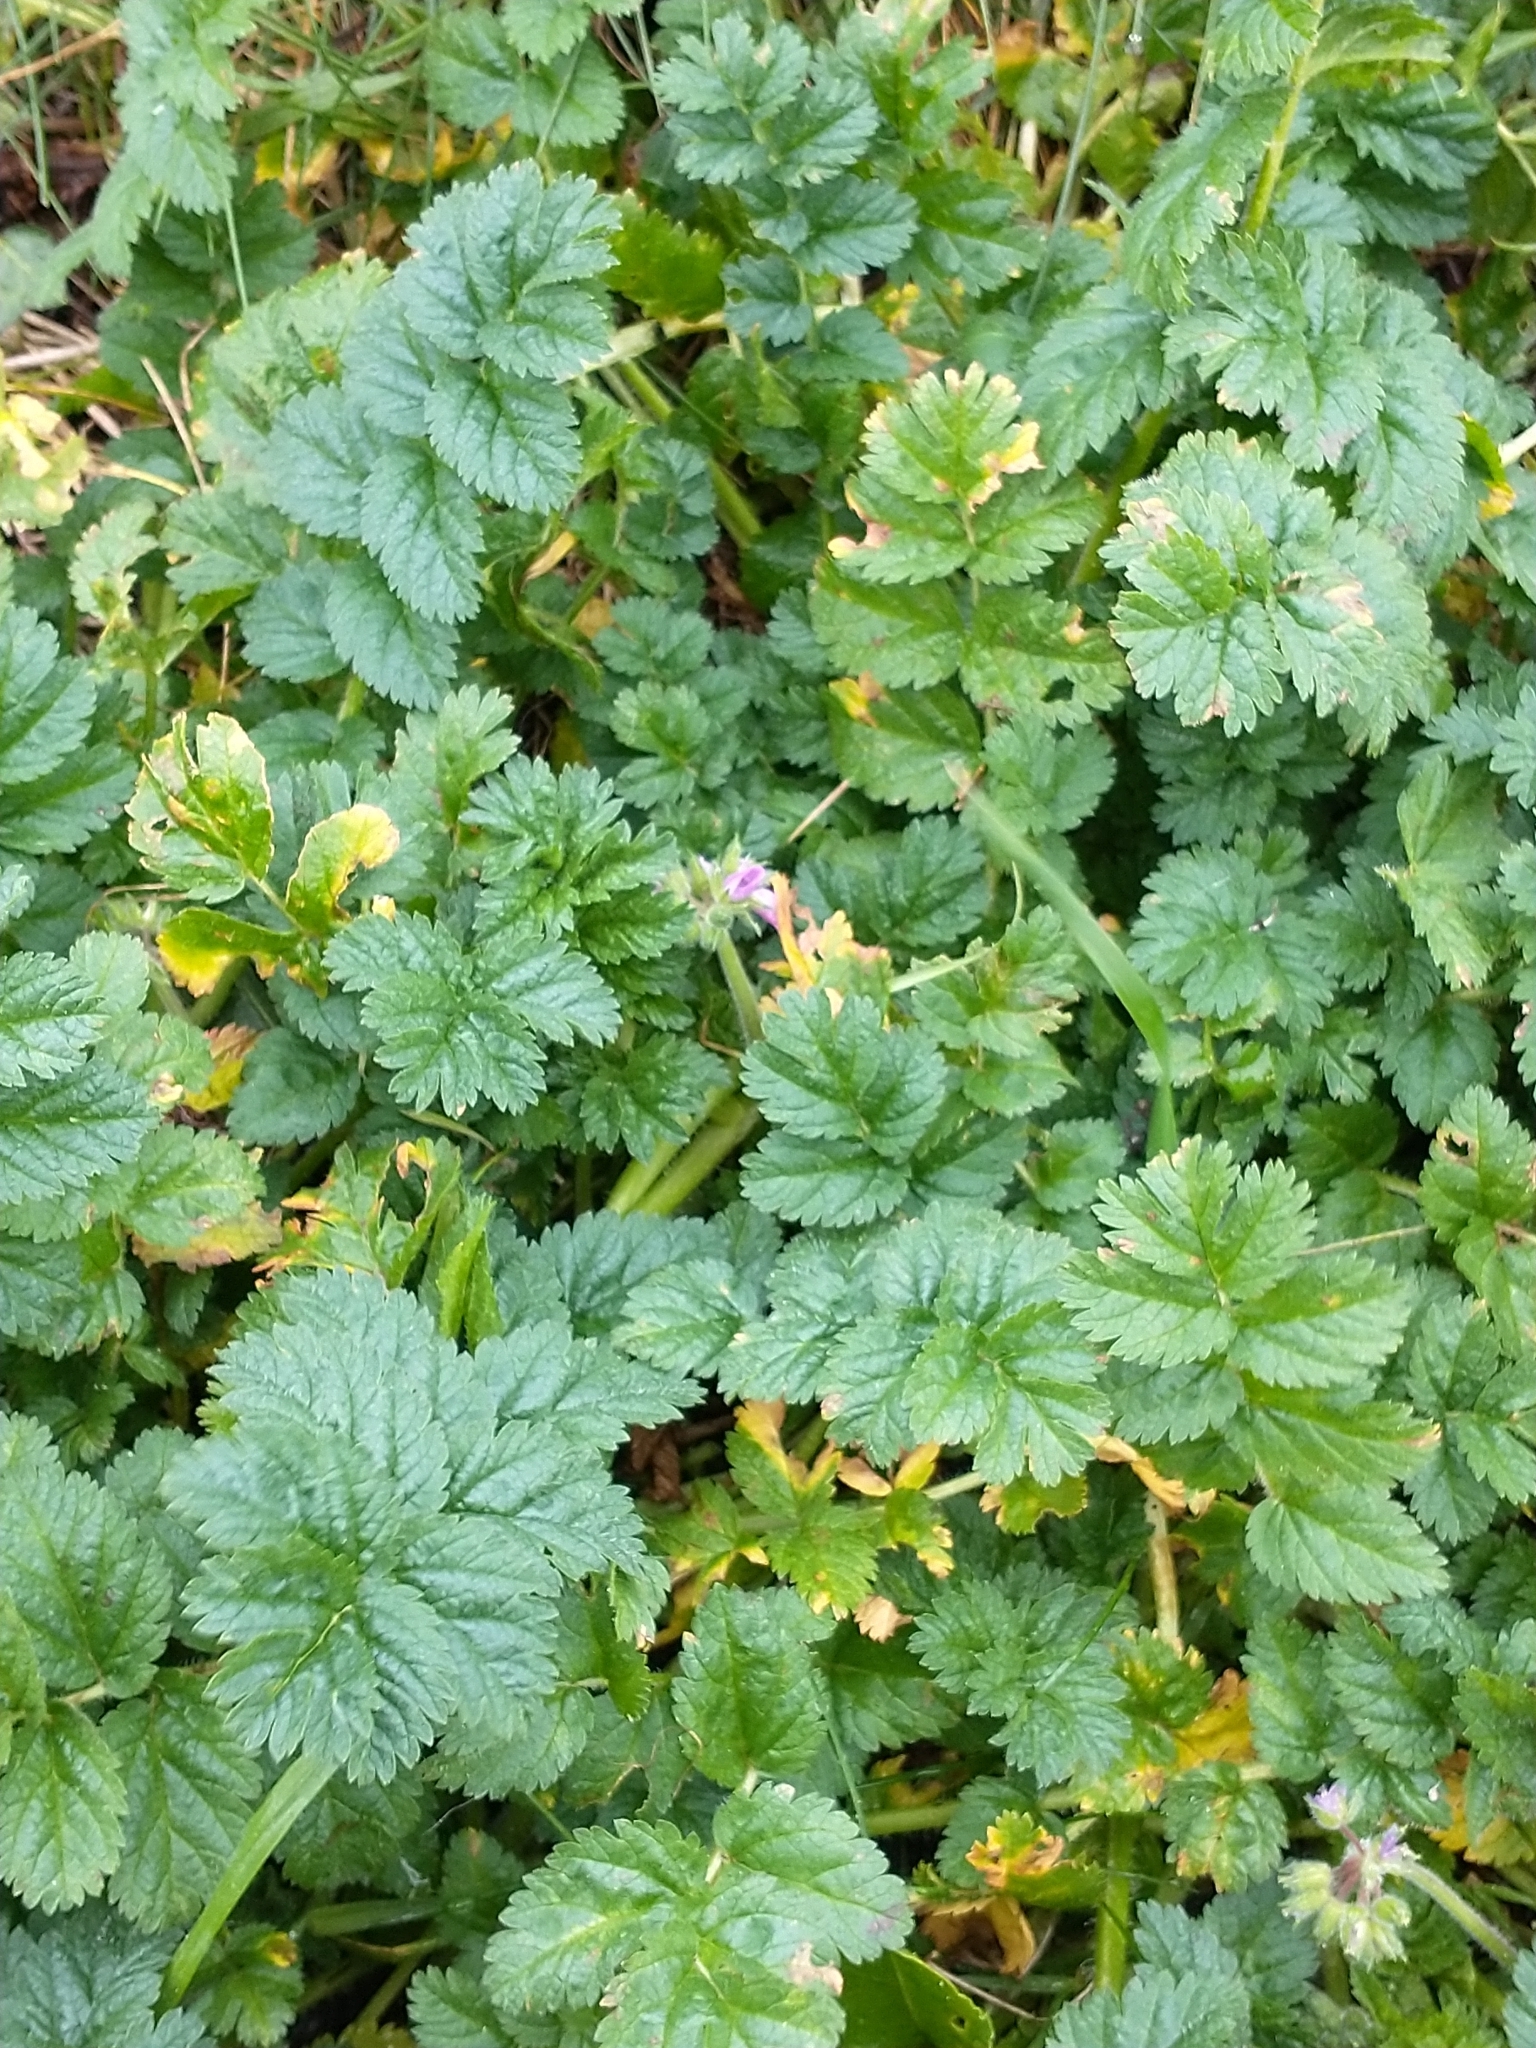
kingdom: Plantae
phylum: Tracheophyta
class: Magnoliopsida
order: Geraniales
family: Geraniaceae
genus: Erodium
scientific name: Erodium moschatum
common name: Musk stork's-bill
